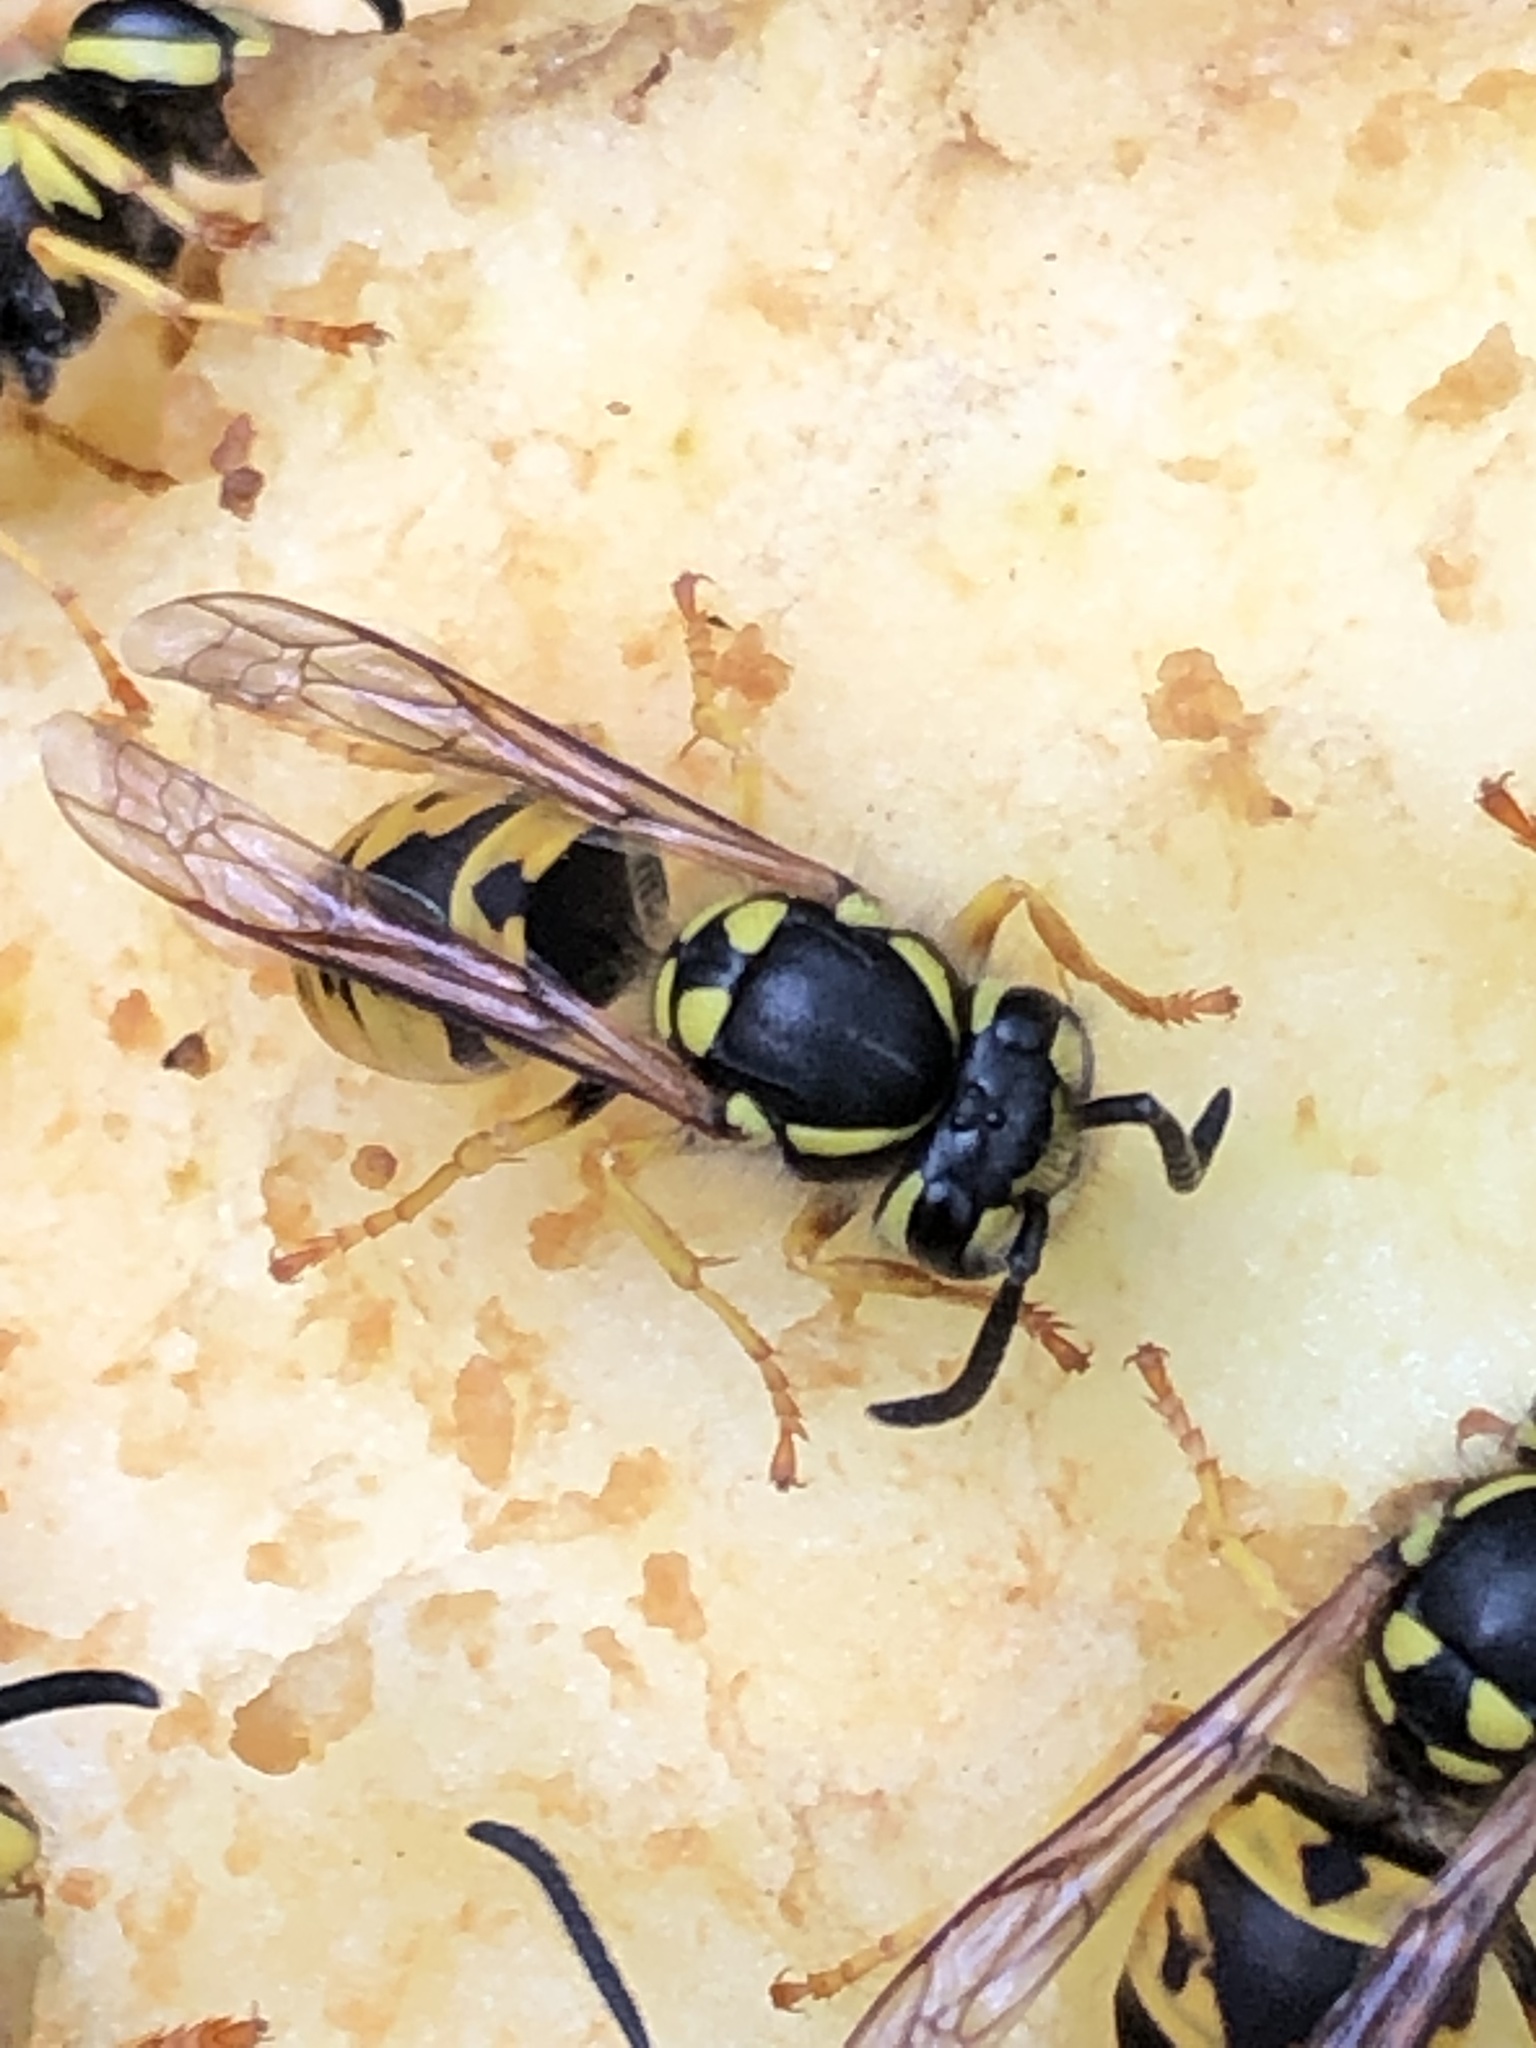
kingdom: Animalia
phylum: Arthropoda
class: Insecta
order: Hymenoptera
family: Vespidae
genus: Vespula
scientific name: Vespula germanica
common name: German wasp
